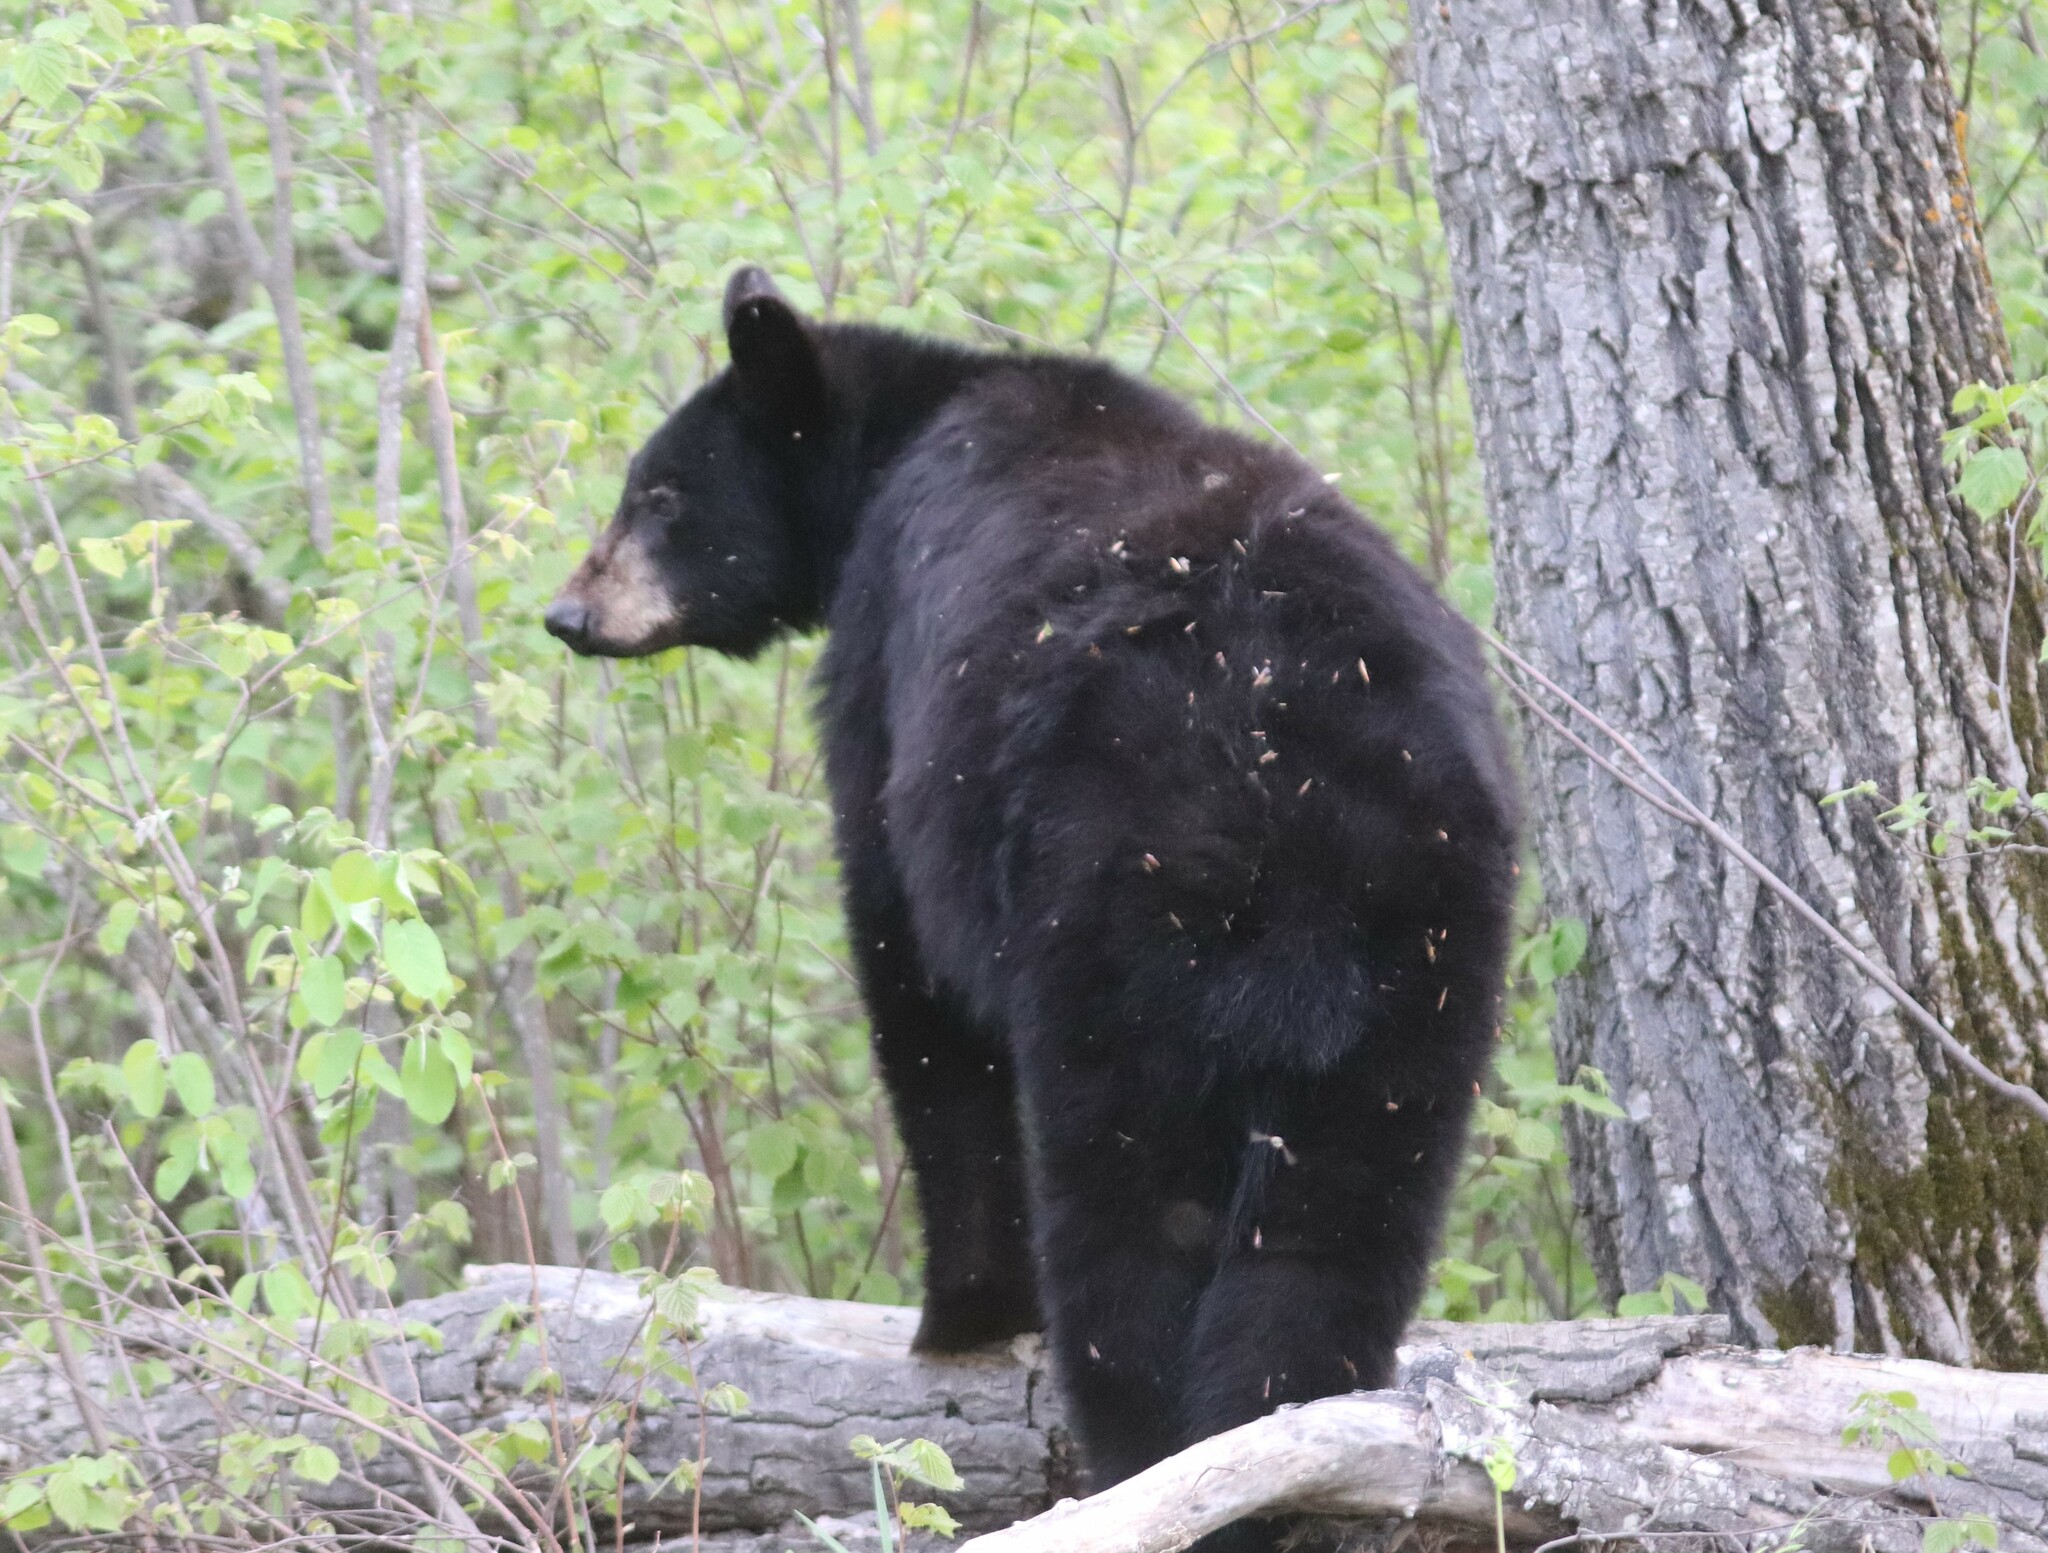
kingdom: Animalia
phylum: Chordata
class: Mammalia
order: Carnivora
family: Ursidae
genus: Ursus
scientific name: Ursus americanus
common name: American black bear
